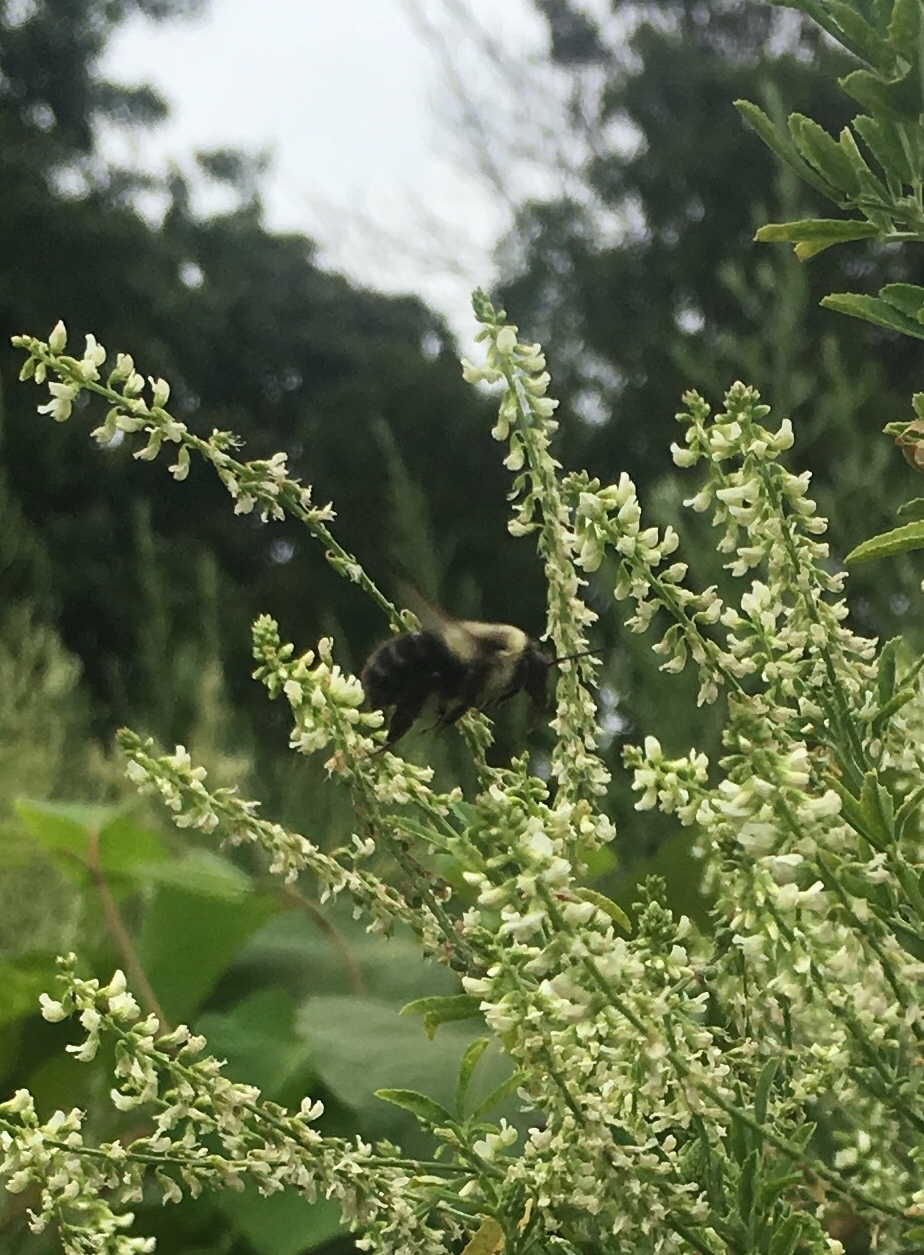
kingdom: Animalia
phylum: Arthropoda
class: Insecta
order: Hymenoptera
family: Apidae
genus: Bombus
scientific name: Bombus impatiens
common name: Common eastern bumble bee
